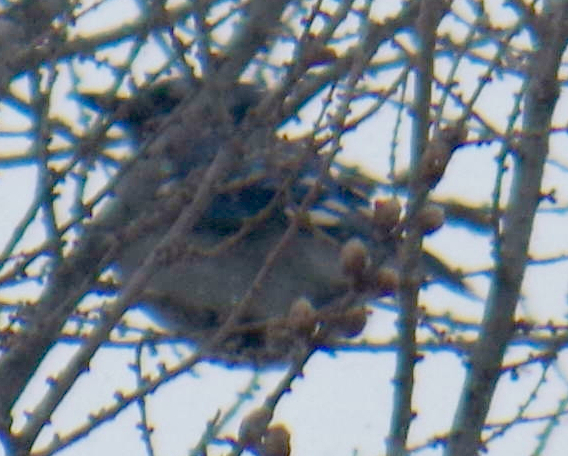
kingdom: Animalia
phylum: Chordata
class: Aves
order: Passeriformes
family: Corvidae
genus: Cyanocitta
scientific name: Cyanocitta cristata
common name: Blue jay
